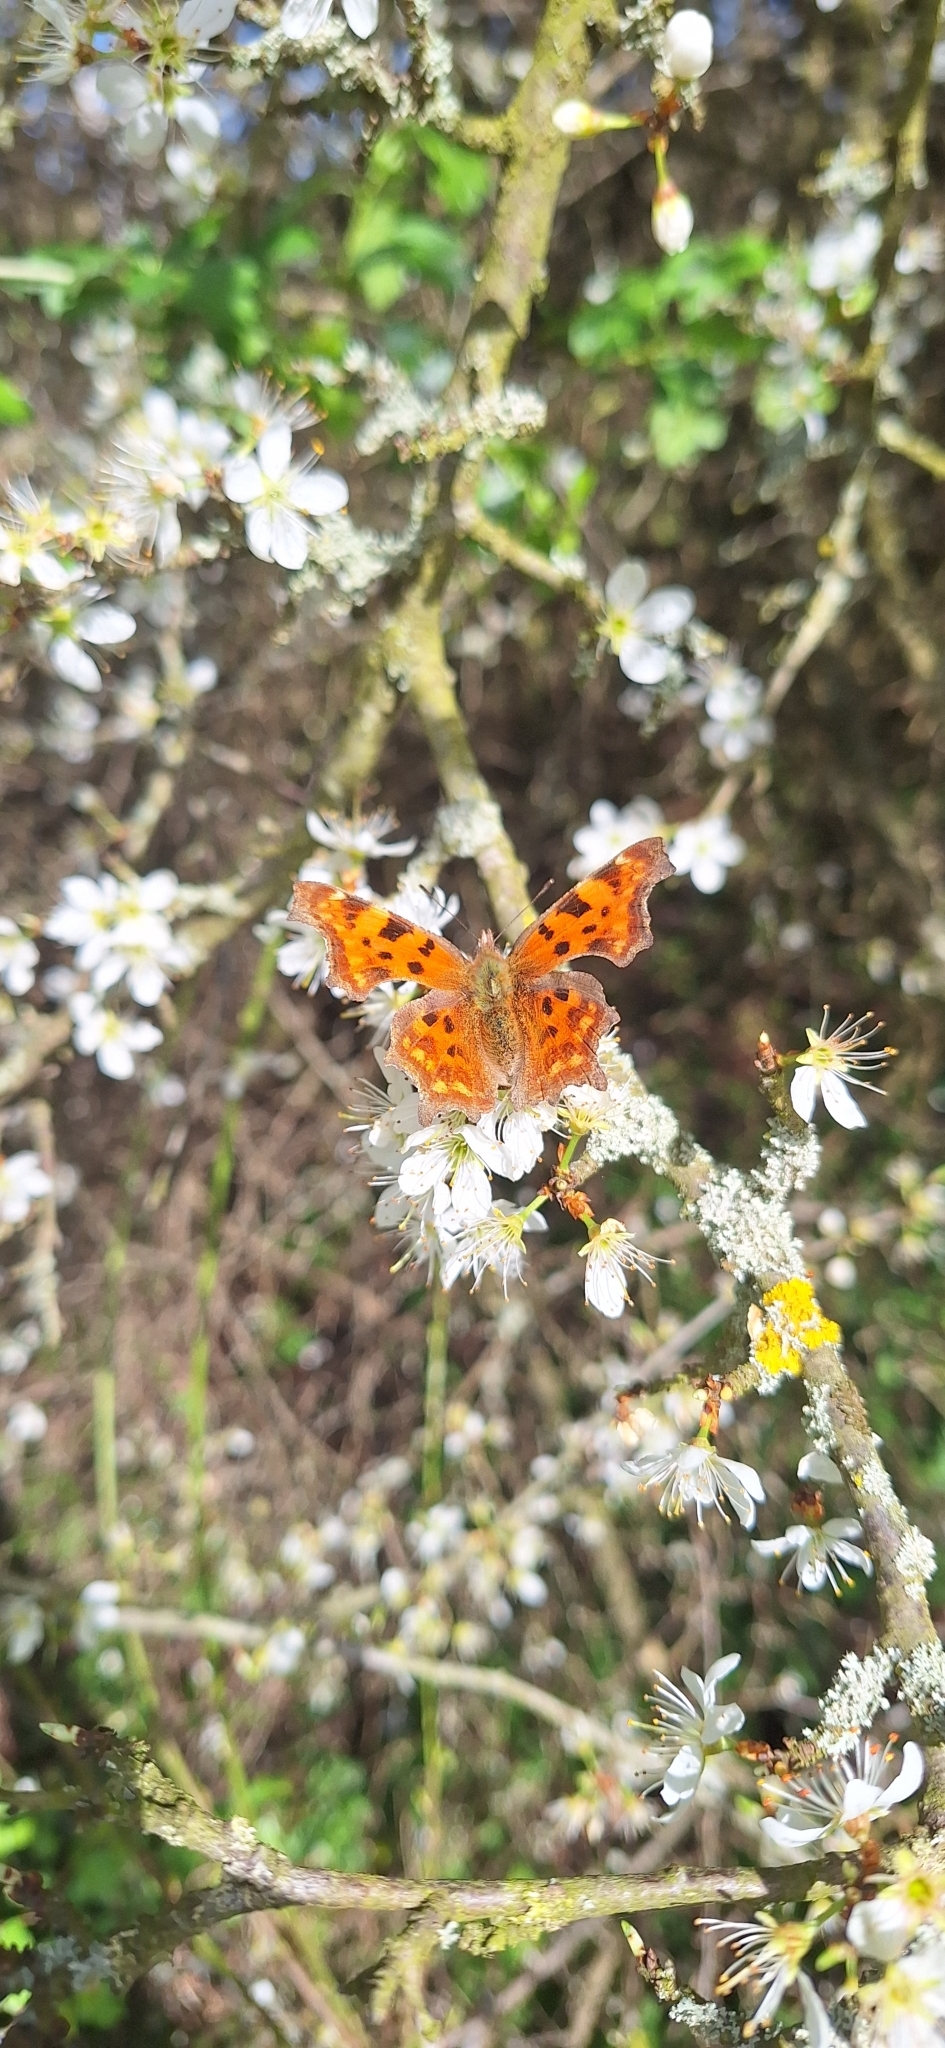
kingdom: Animalia
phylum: Arthropoda
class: Insecta
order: Lepidoptera
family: Nymphalidae
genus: Polygonia
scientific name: Polygonia c-album
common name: Comma
